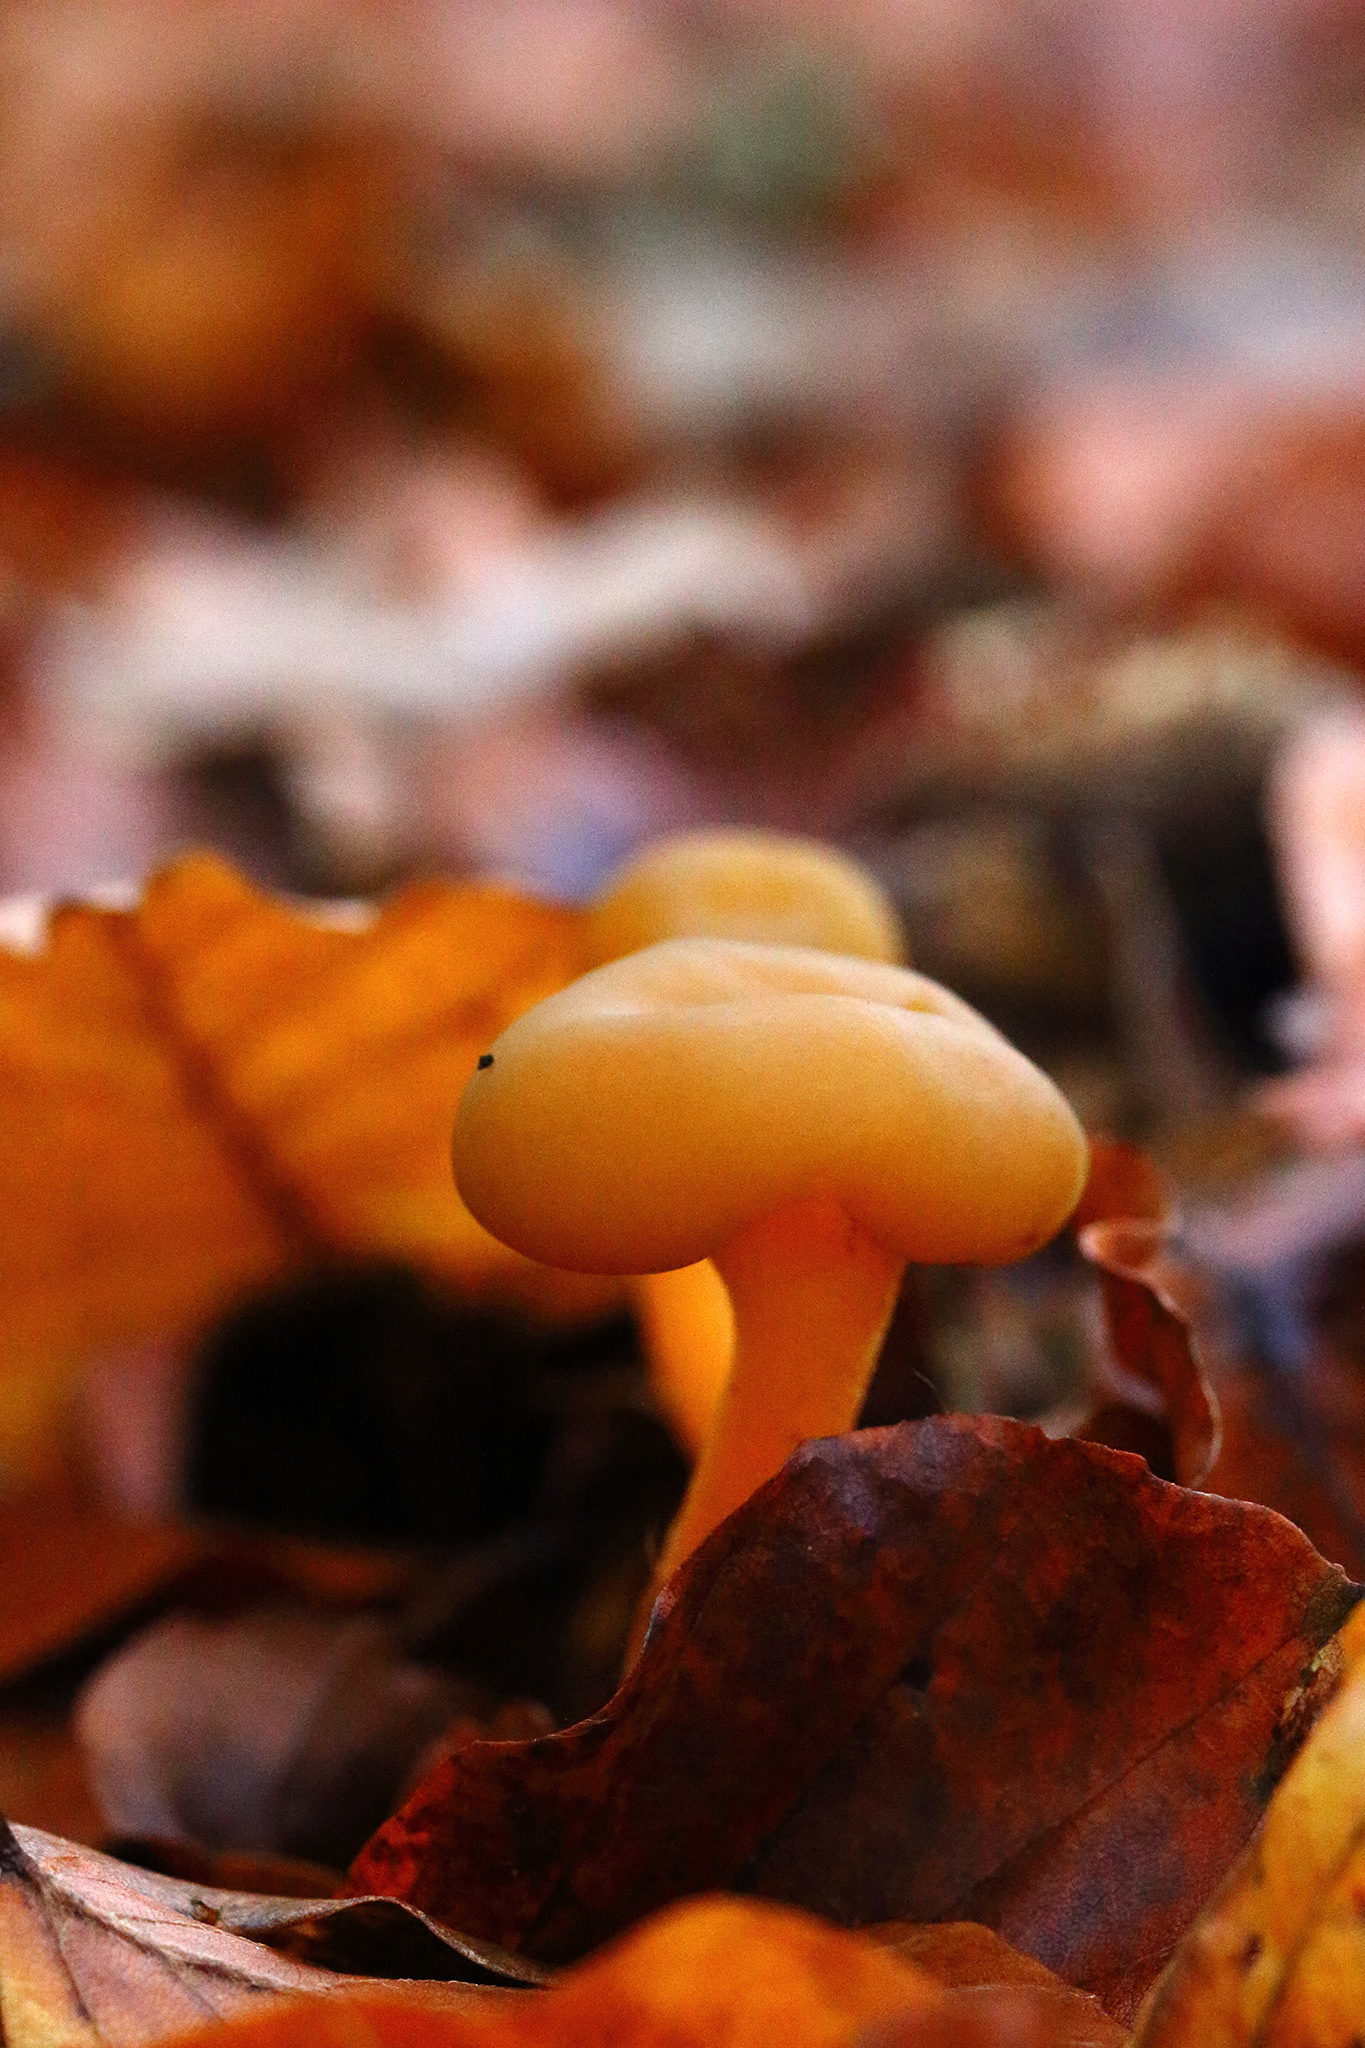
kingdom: Fungi
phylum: Ascomycota
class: Leotiomycetes
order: Leotiales
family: Leotiaceae
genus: Leotia
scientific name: Leotia lubrica
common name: Jellybaby
